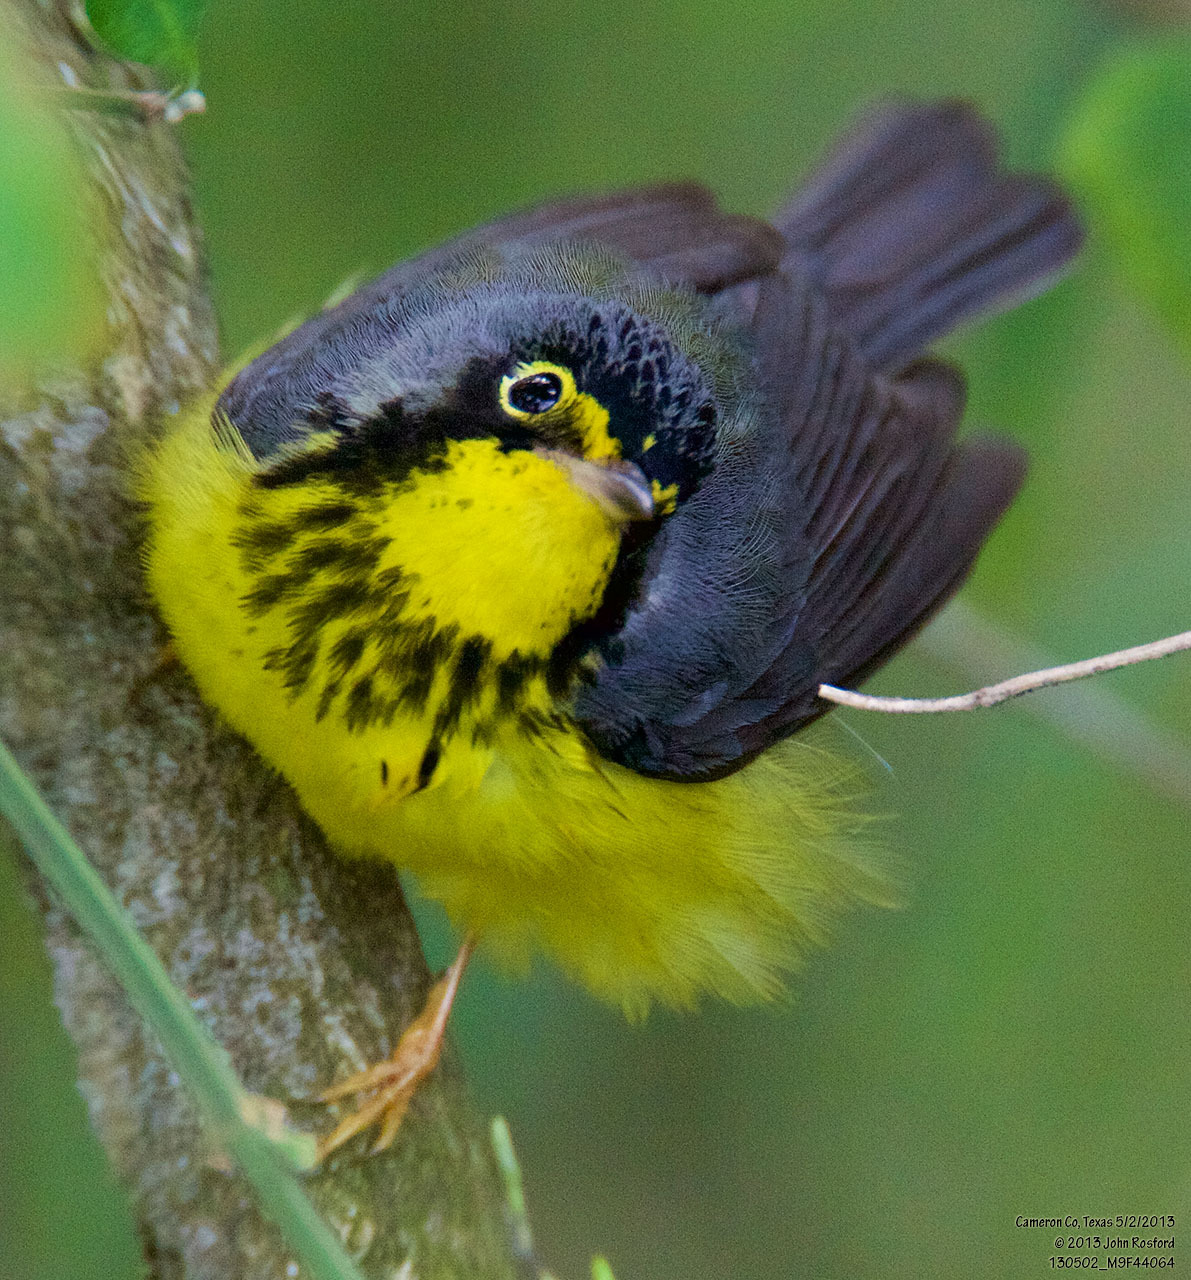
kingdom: Animalia
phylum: Chordata
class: Aves
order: Passeriformes
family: Parulidae
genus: Cardellina
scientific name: Cardellina canadensis
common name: Canada warbler
